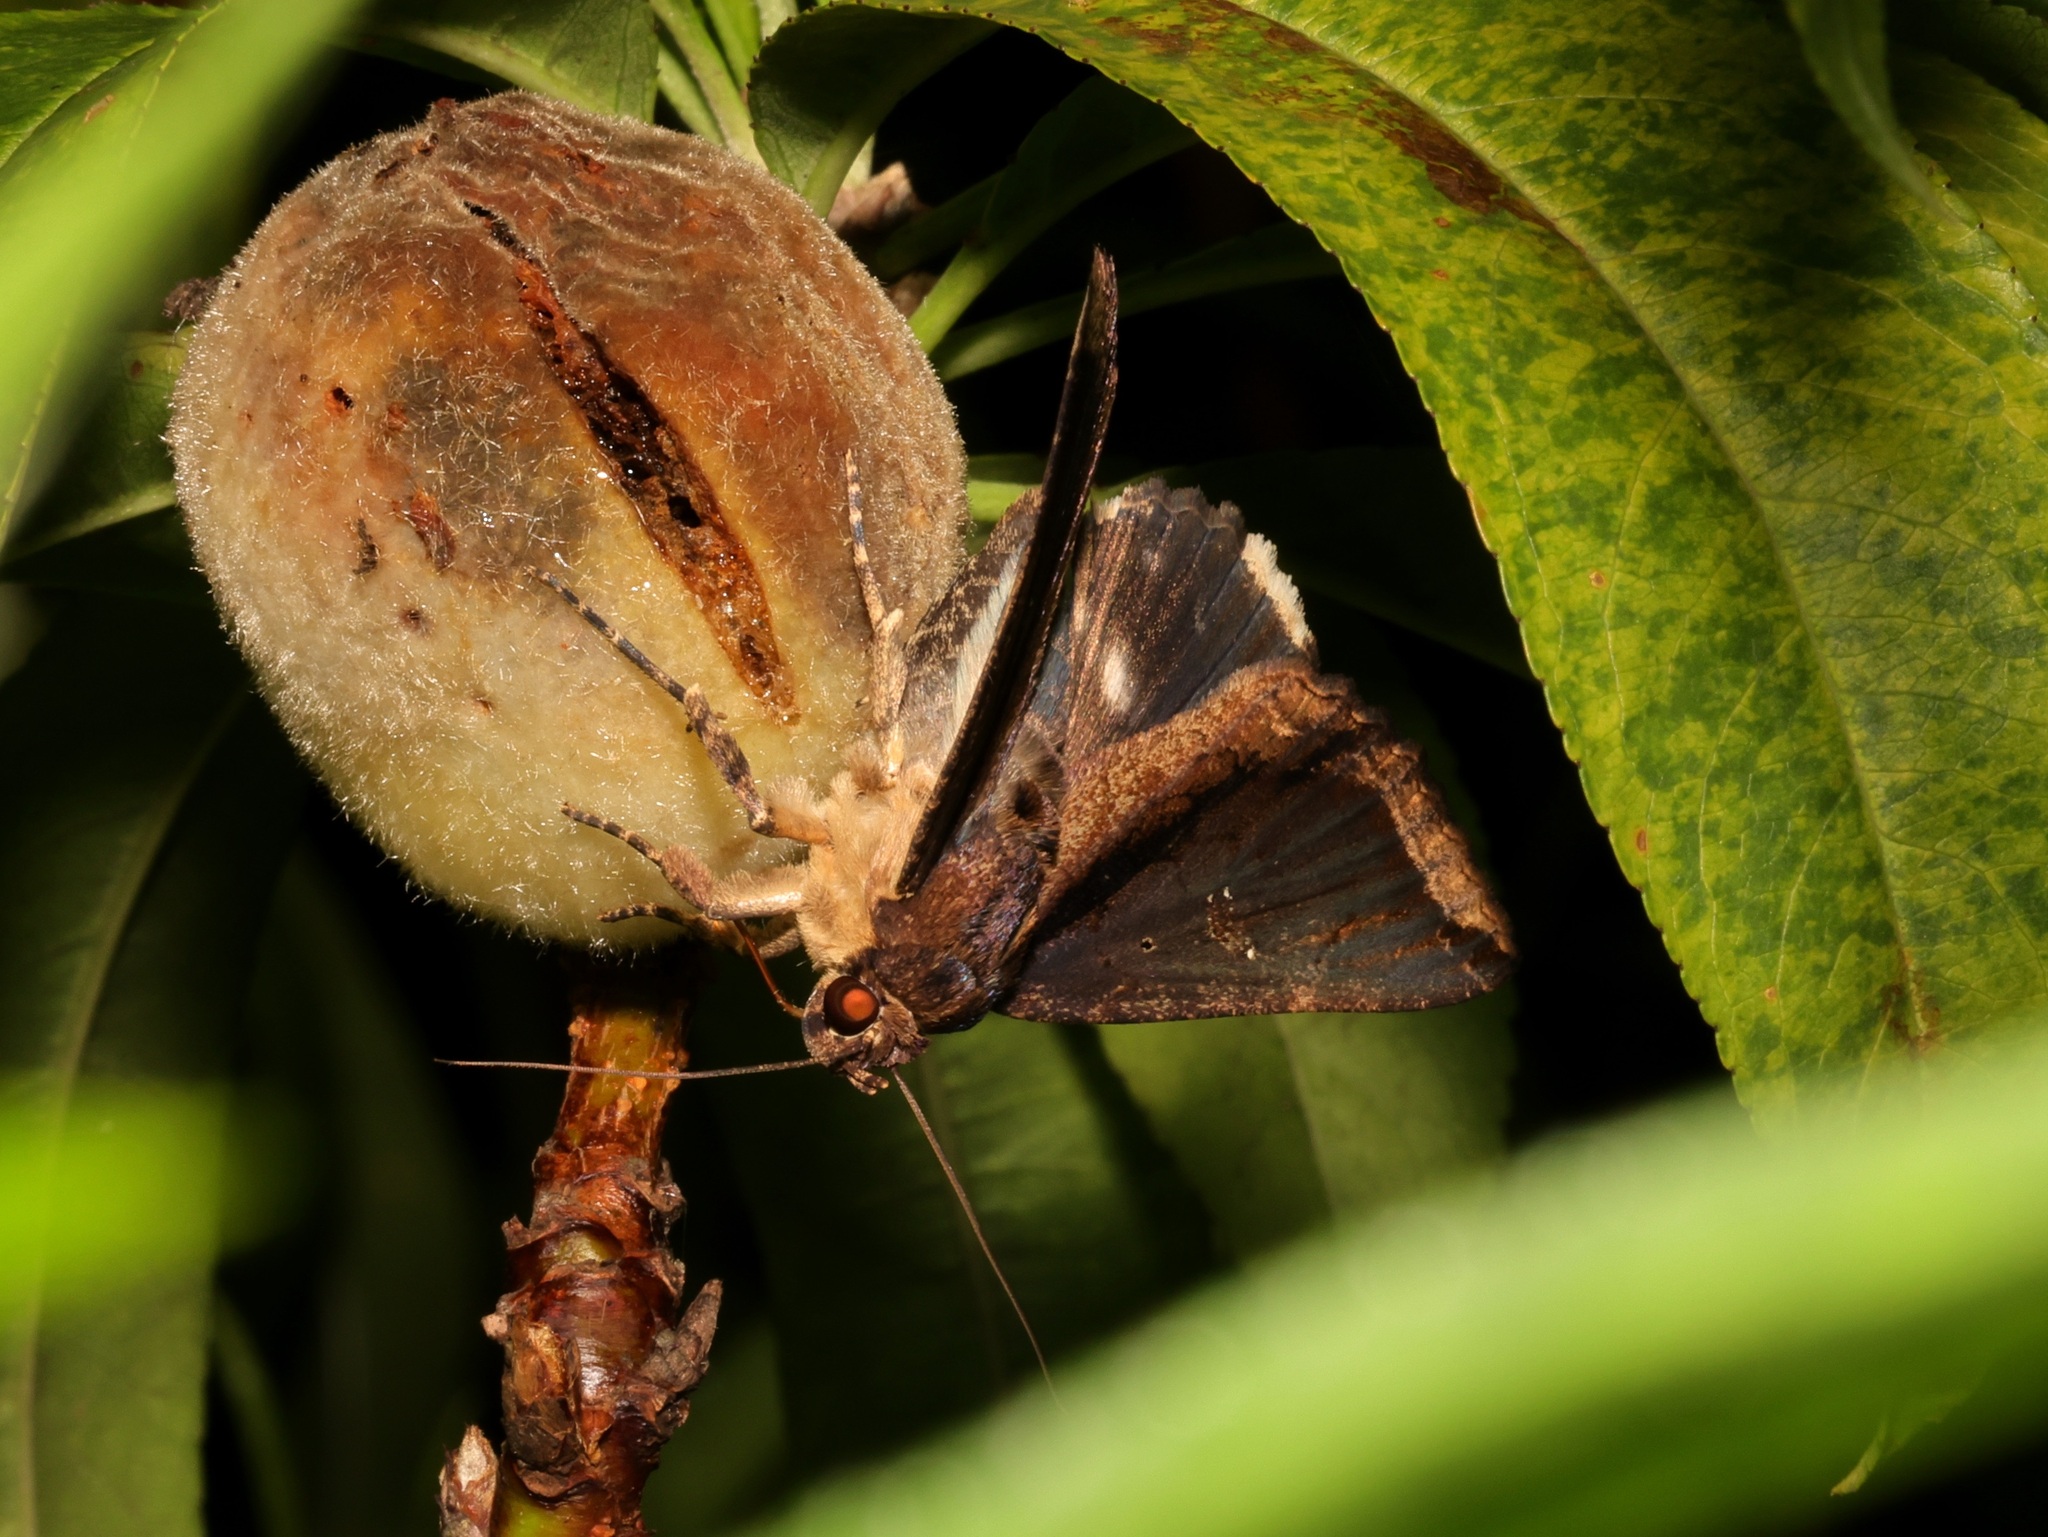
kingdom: Animalia
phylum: Arthropoda
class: Insecta
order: Lepidoptera
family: Erebidae
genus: Ercheia
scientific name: Ercheia cyllaria
